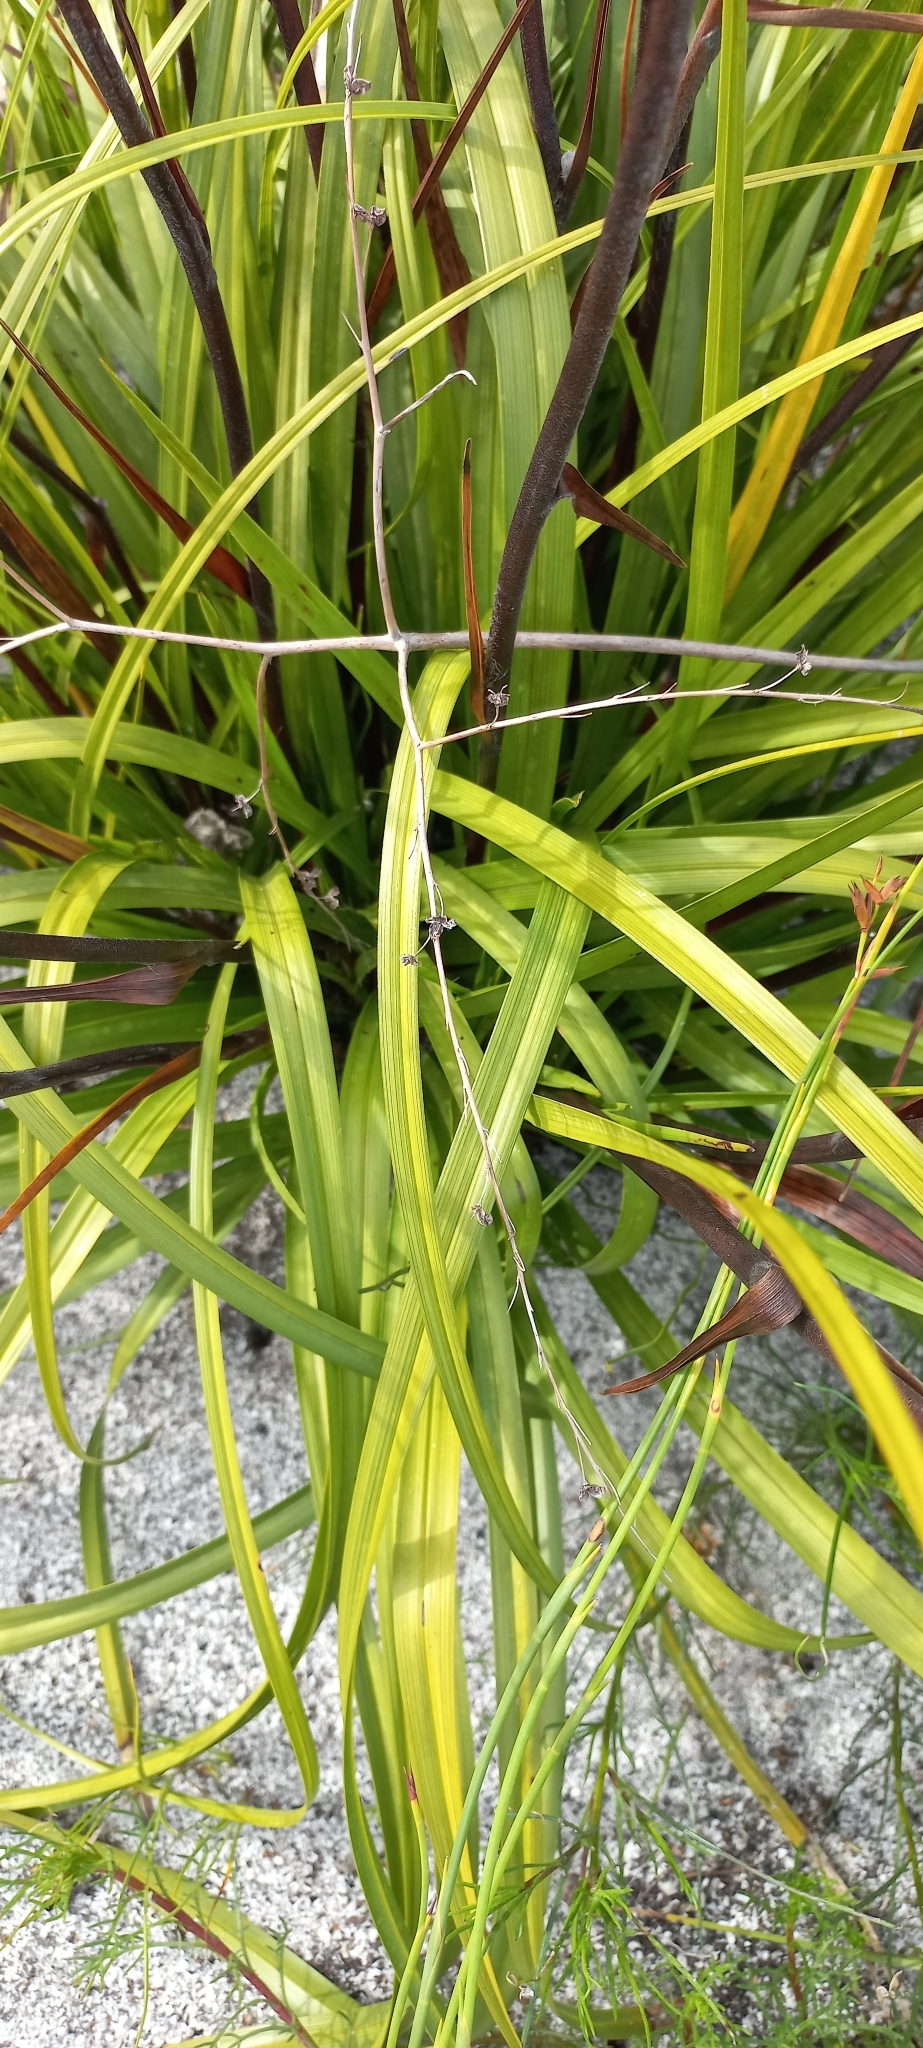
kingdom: Plantae
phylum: Tracheophyta
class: Liliopsida
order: Asparagales
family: Lanariaceae
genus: Lanaria
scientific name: Lanaria lanata
